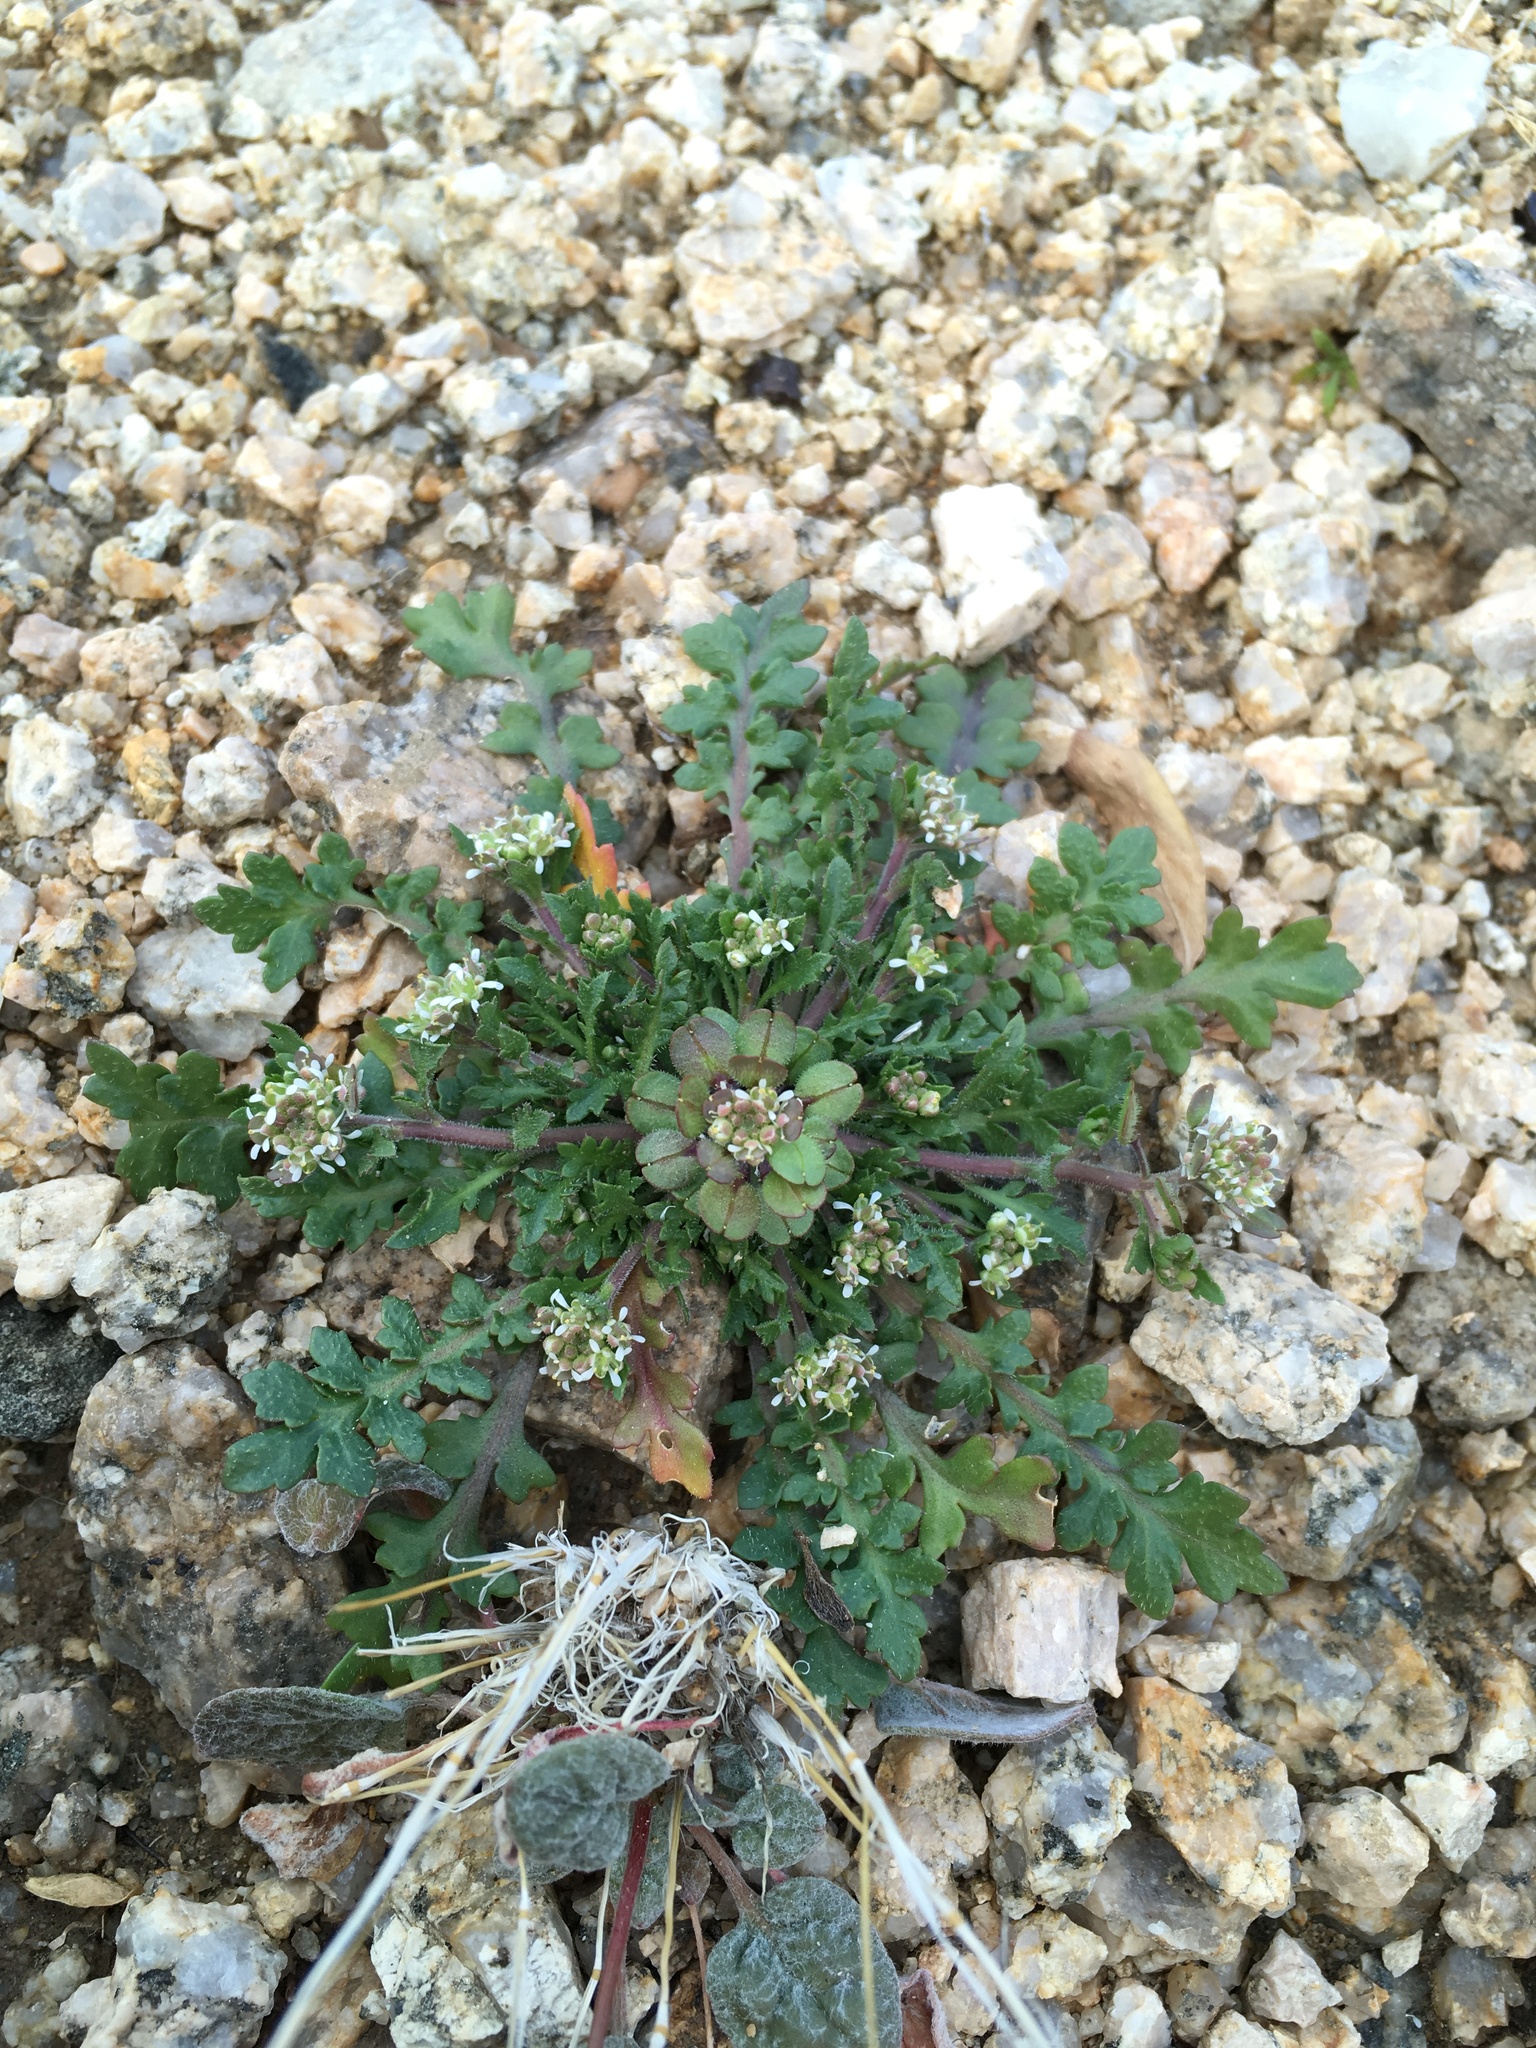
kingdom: Plantae
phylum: Tracheophyta
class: Magnoliopsida
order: Brassicales
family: Brassicaceae
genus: Lepidium
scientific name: Lepidium lasiocarpum
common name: Hairy-pod pepperwort
